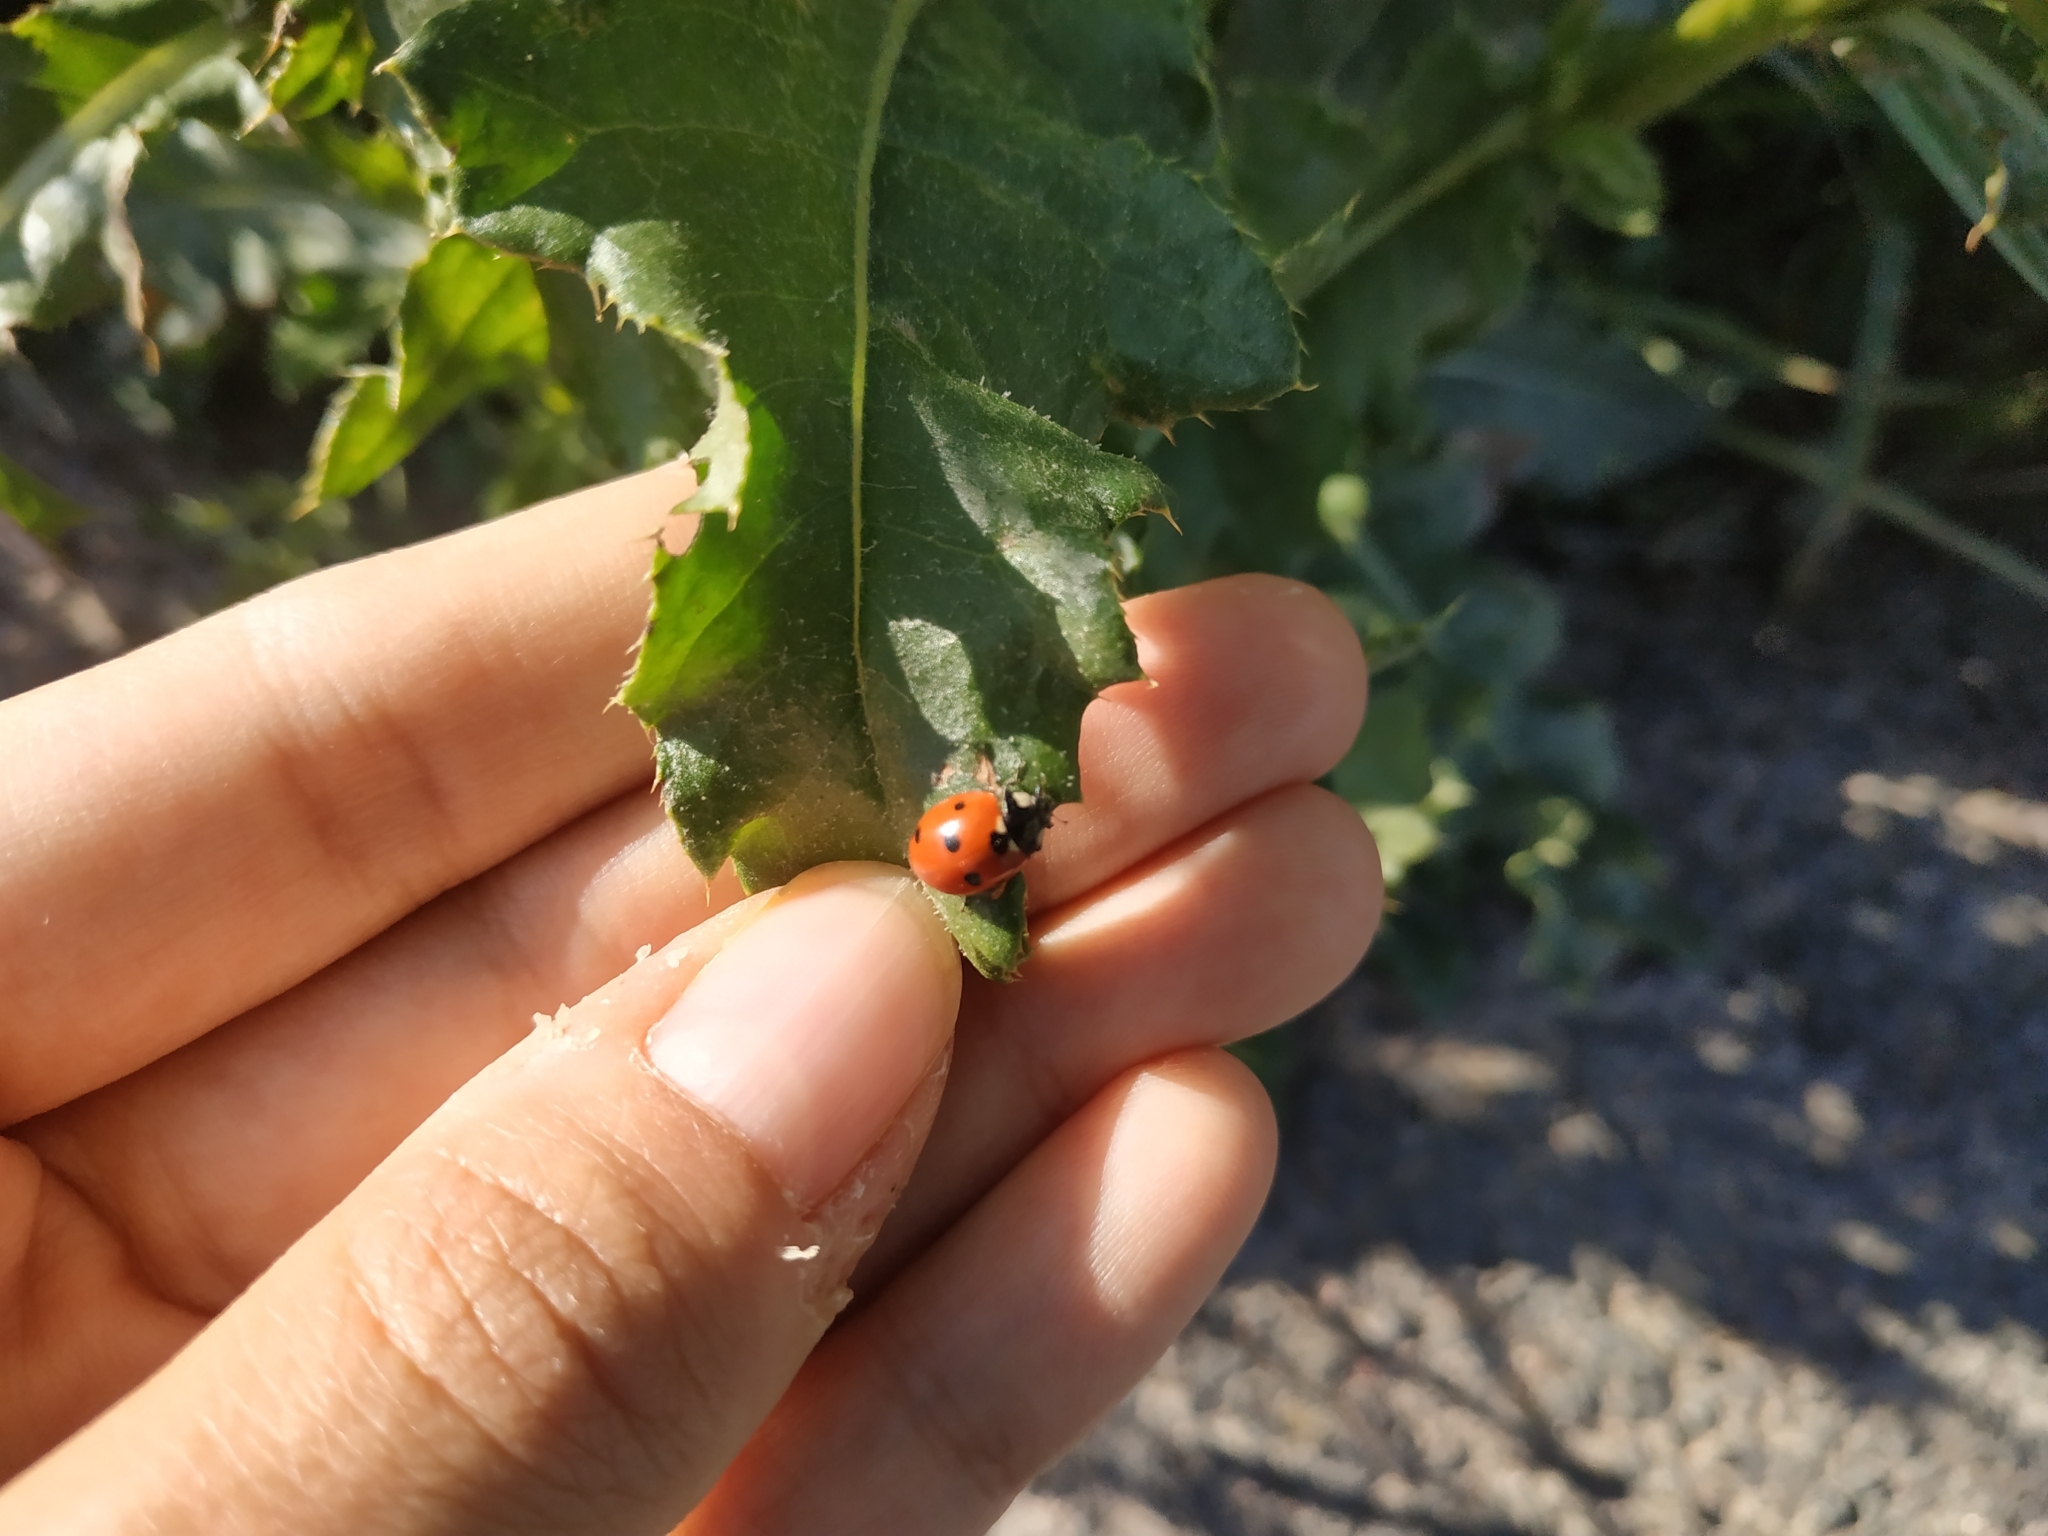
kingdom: Animalia
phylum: Arthropoda
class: Insecta
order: Coleoptera
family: Coccinellidae
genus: Coccinella
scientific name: Coccinella septempunctata
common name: Sevenspotted lady beetle
